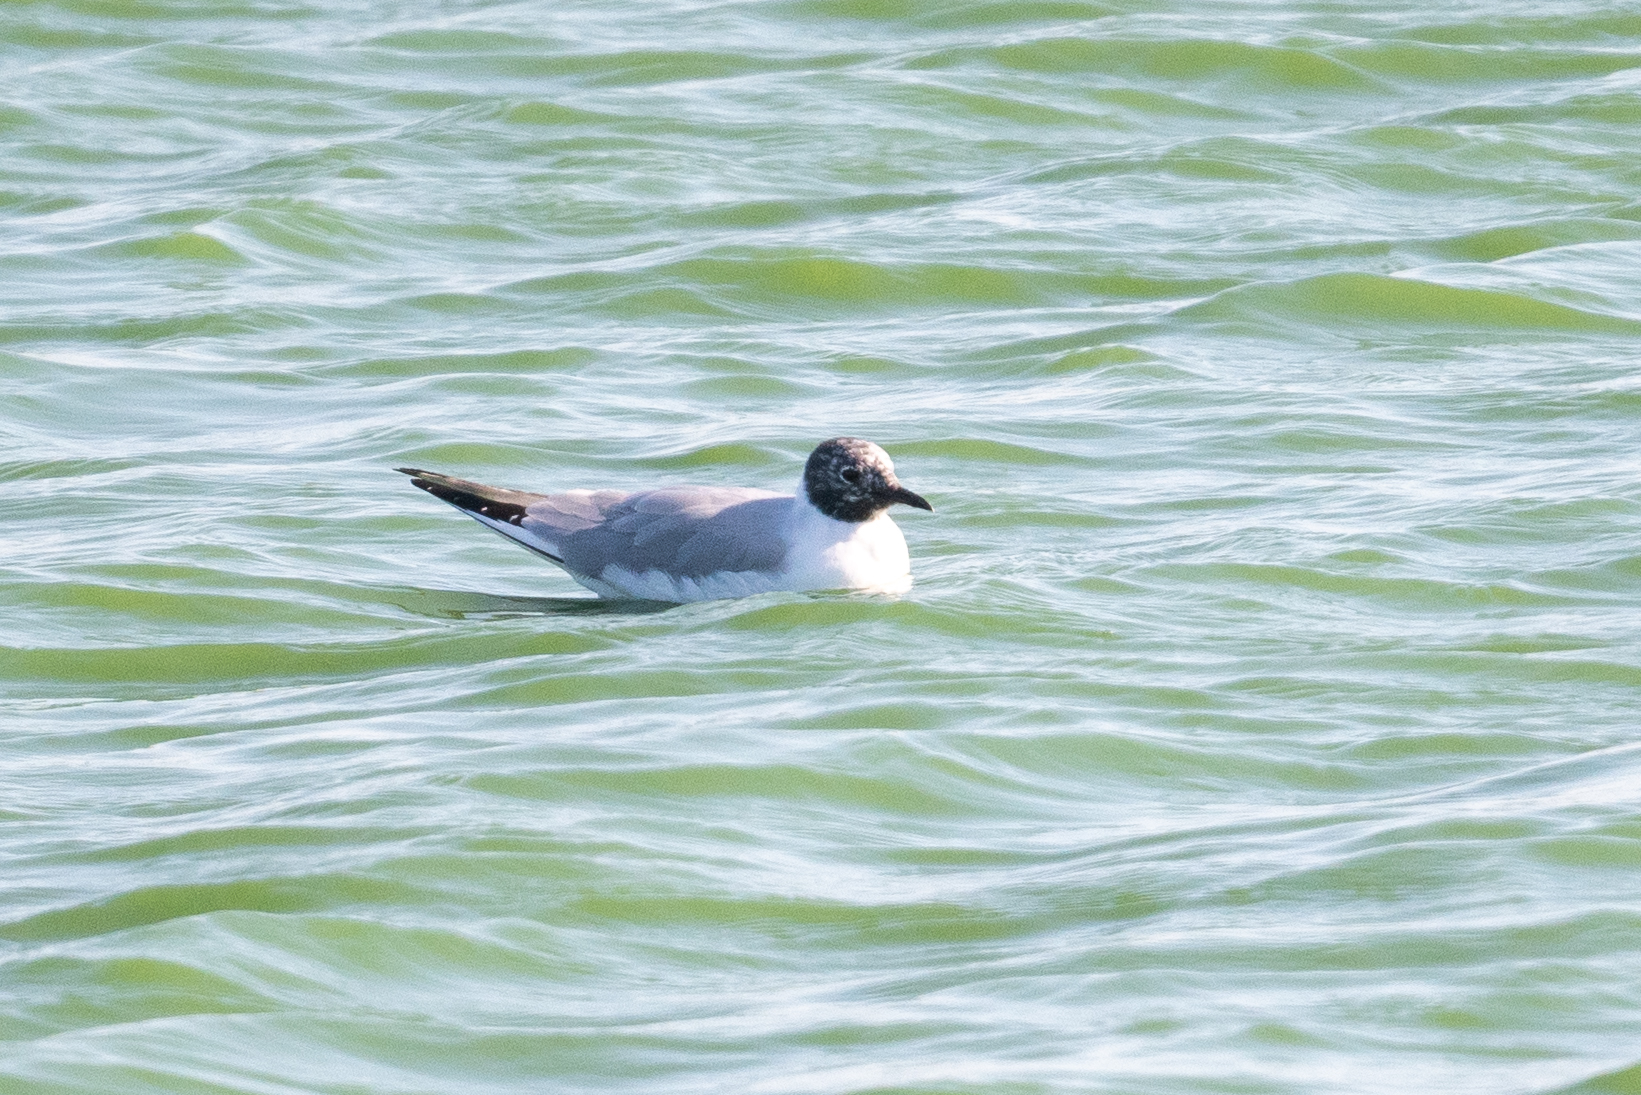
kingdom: Animalia
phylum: Chordata
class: Aves
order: Charadriiformes
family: Laridae
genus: Chroicocephalus
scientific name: Chroicocephalus philadelphia
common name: Bonaparte's gull
